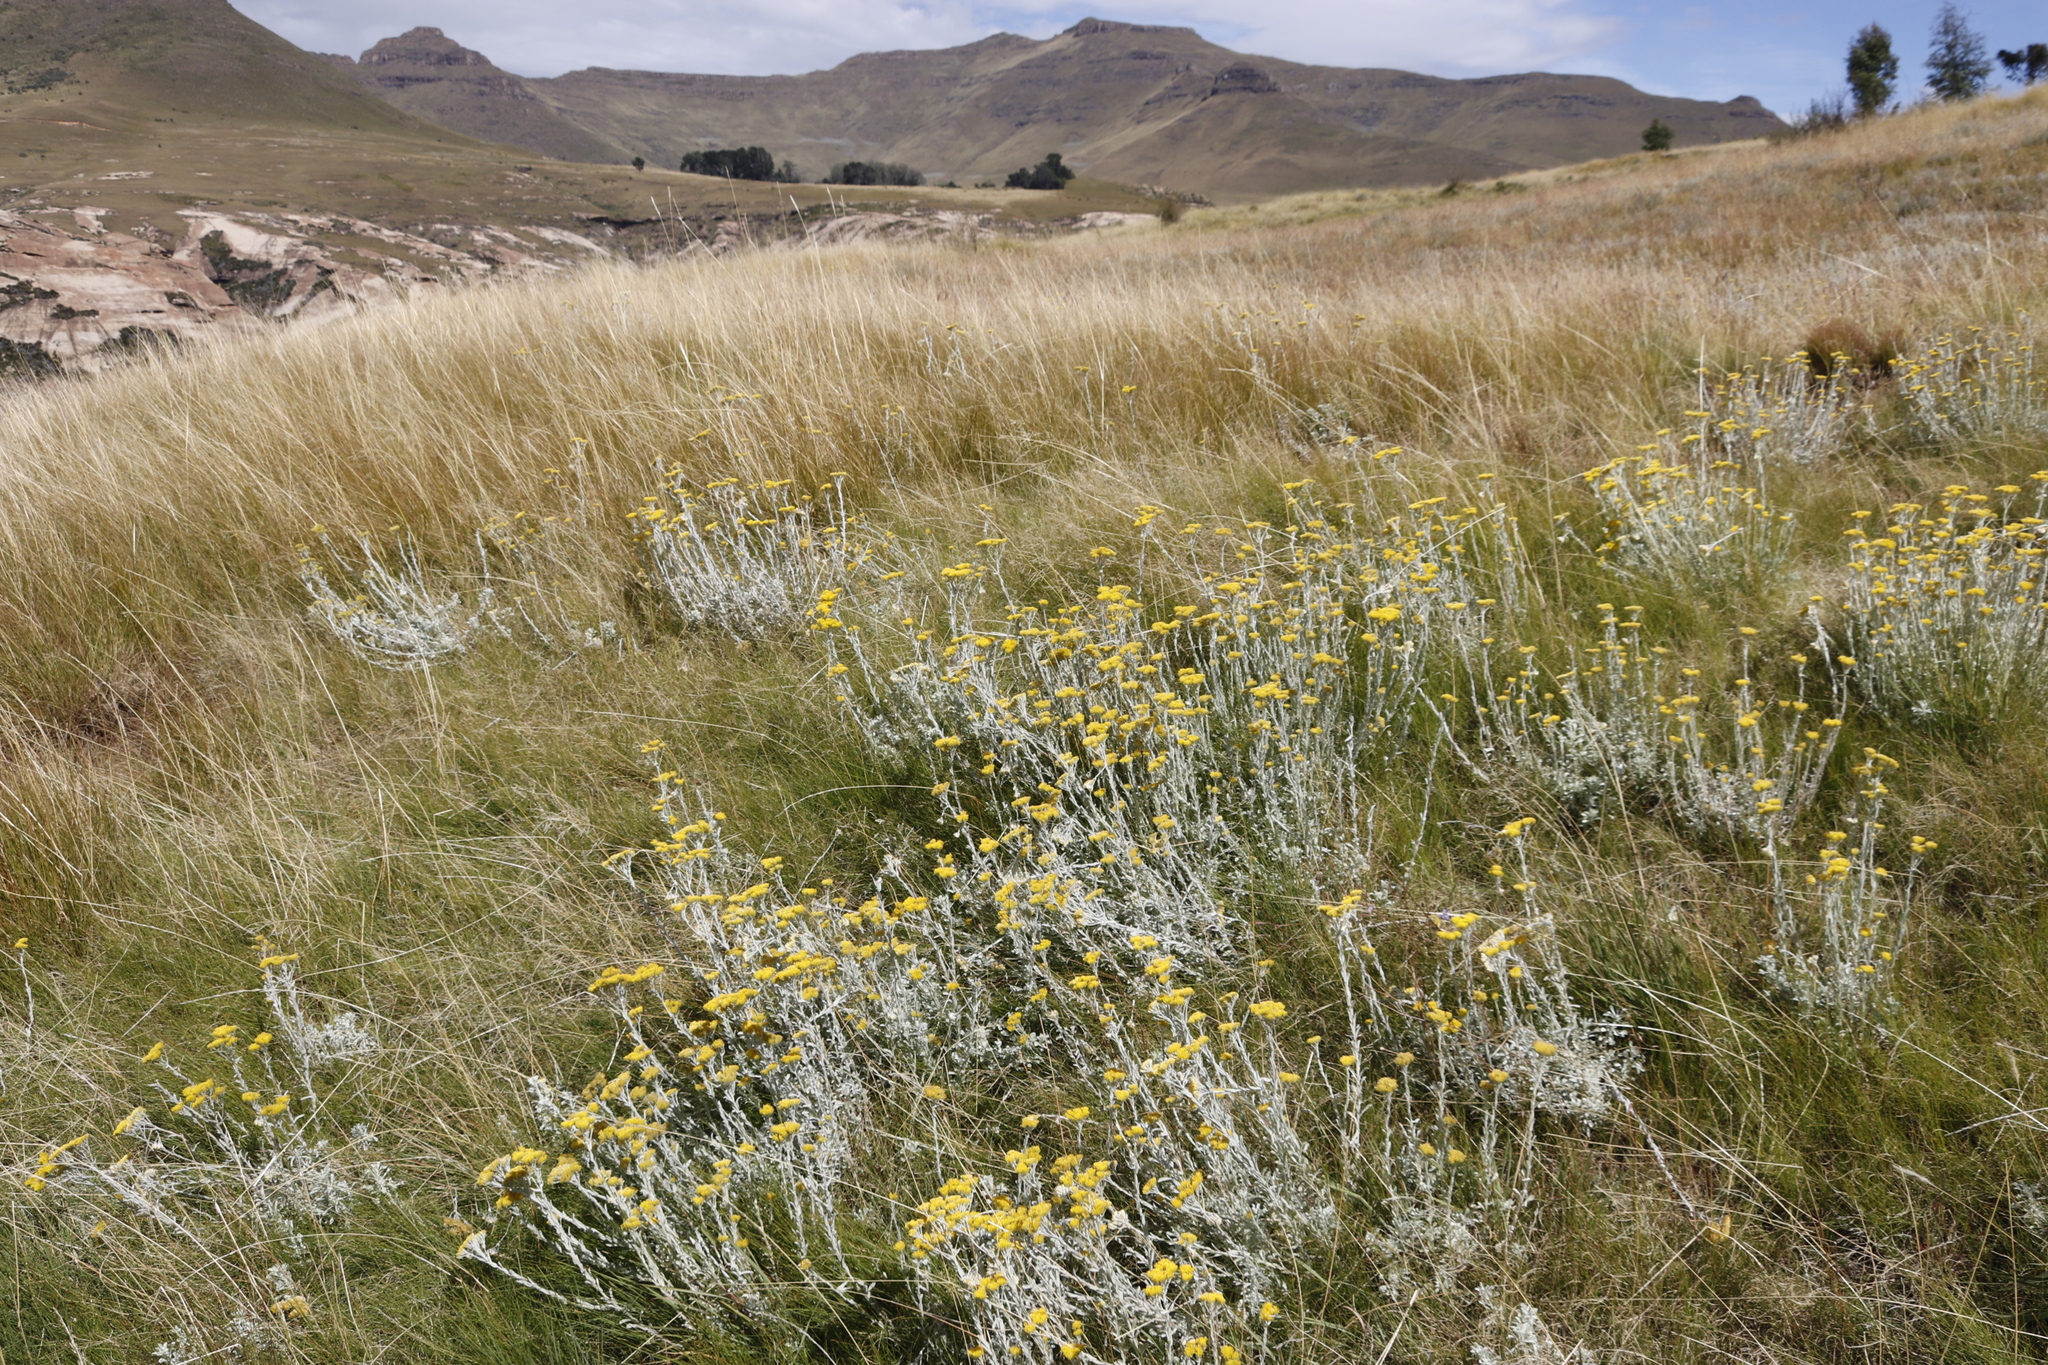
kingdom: Plantae
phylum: Tracheophyta
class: Magnoliopsida
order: Asterales
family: Asteraceae
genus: Helichrysum
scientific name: Helichrysum aureonitens
